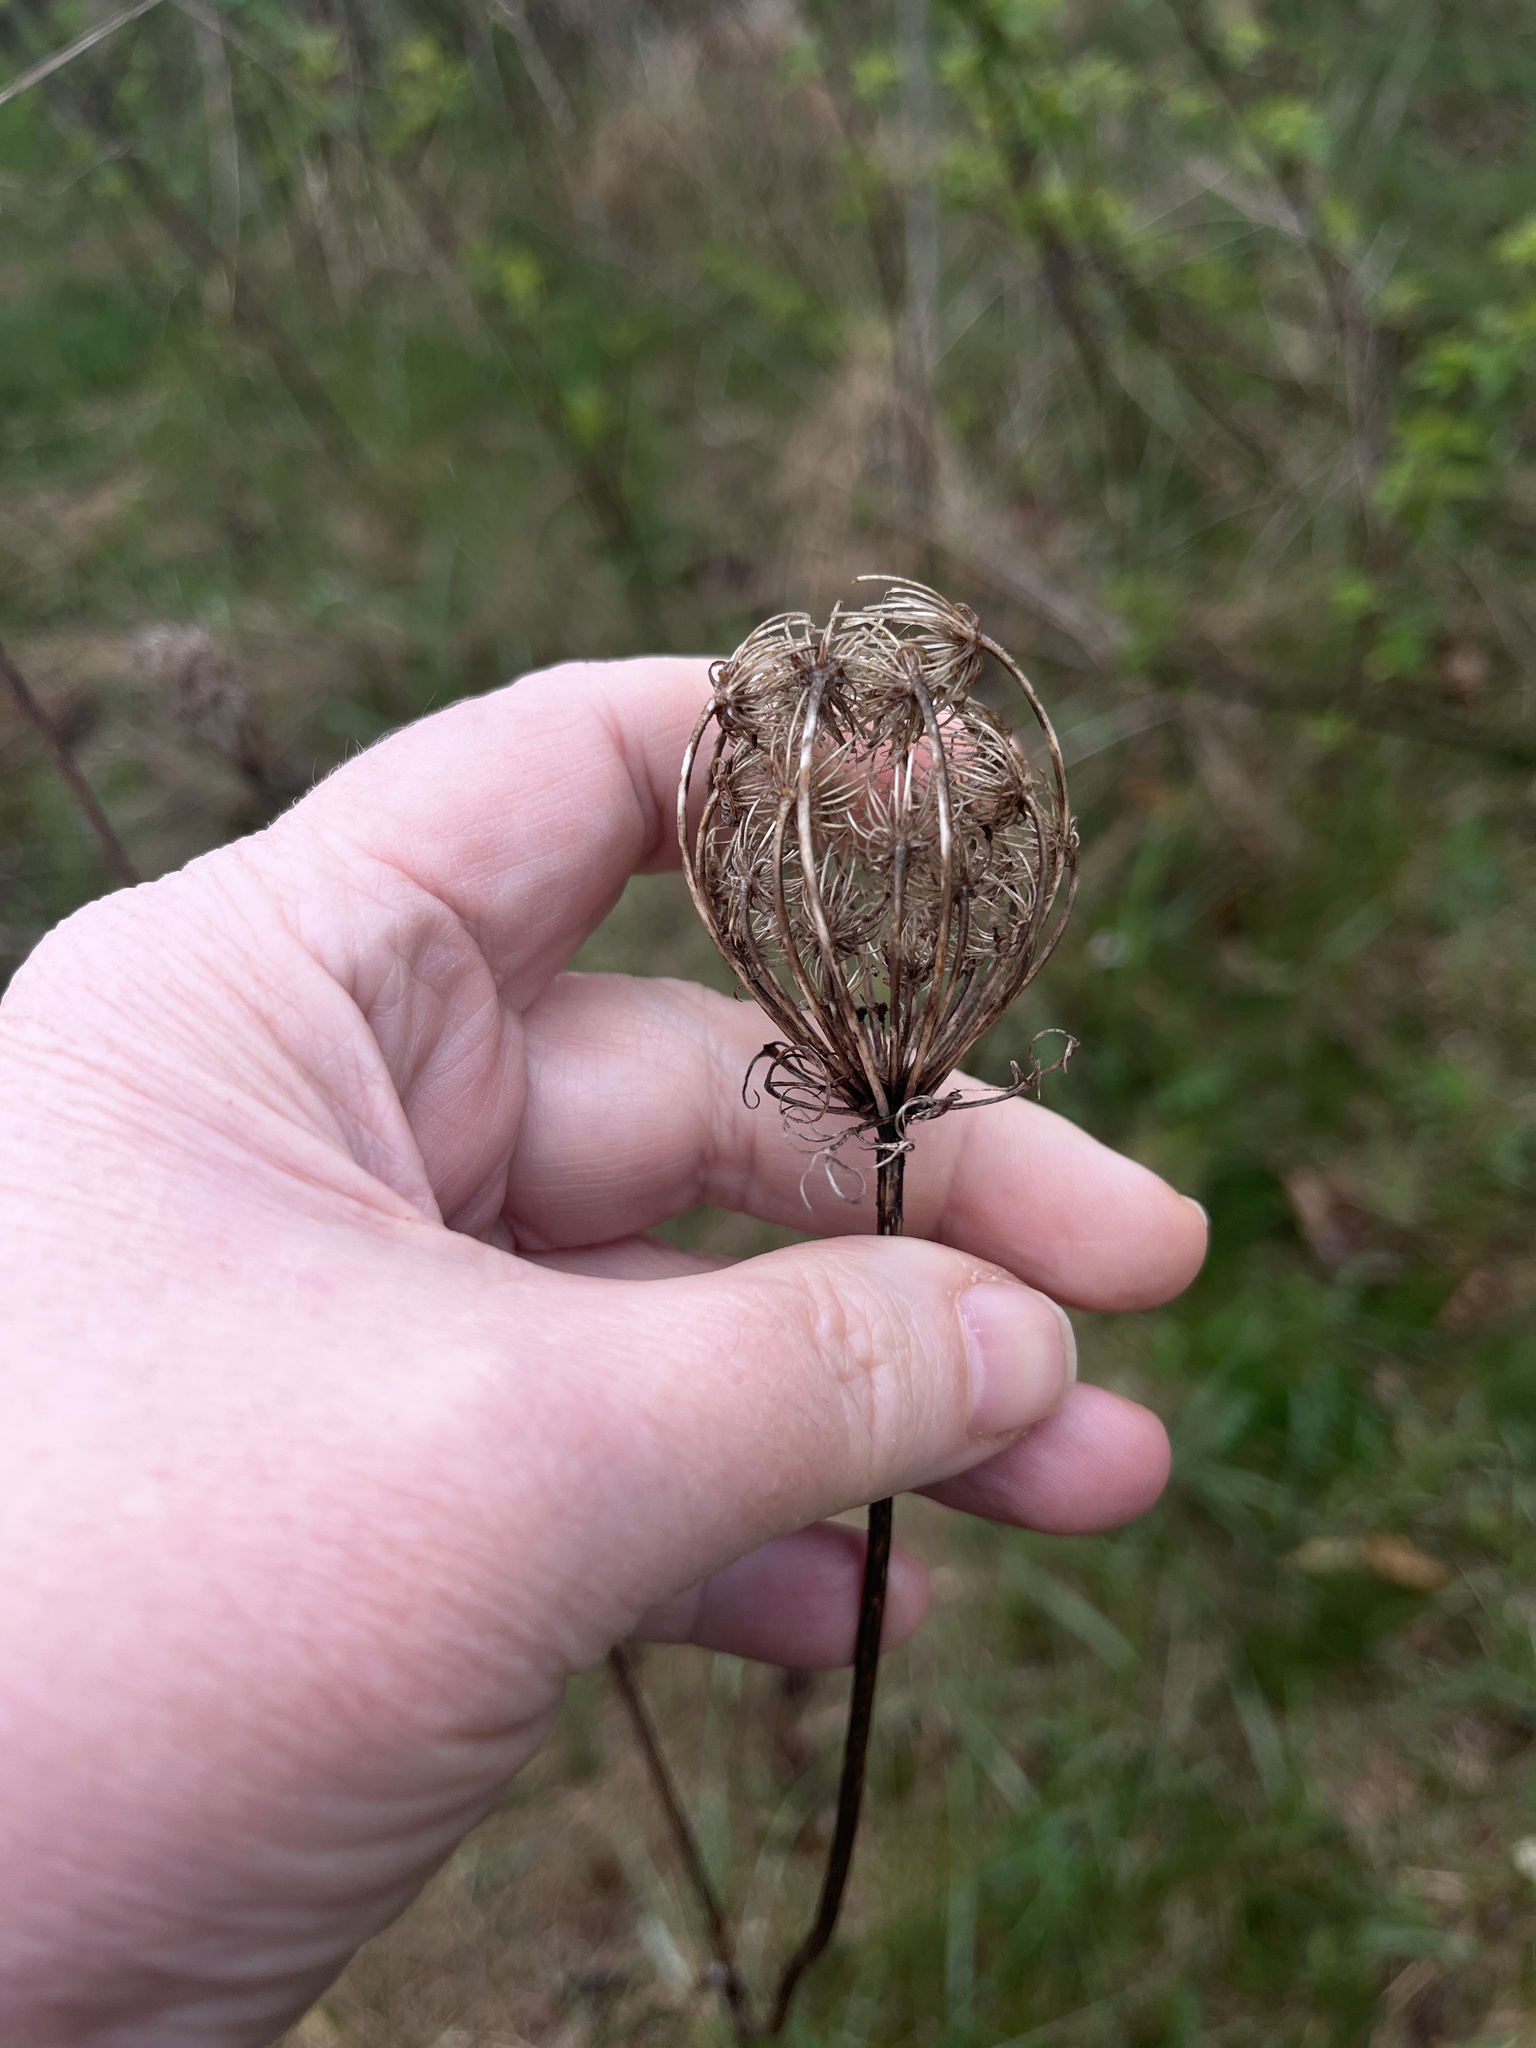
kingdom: Plantae
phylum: Tracheophyta
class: Magnoliopsida
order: Apiales
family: Apiaceae
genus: Daucus
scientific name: Daucus carota
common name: Wild carrot
